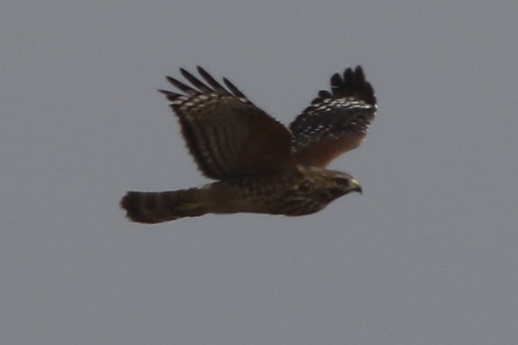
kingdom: Animalia
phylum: Chordata
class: Aves
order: Accipitriformes
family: Accipitridae
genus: Buteo
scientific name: Buteo lineatus
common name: Red-shouldered hawk
